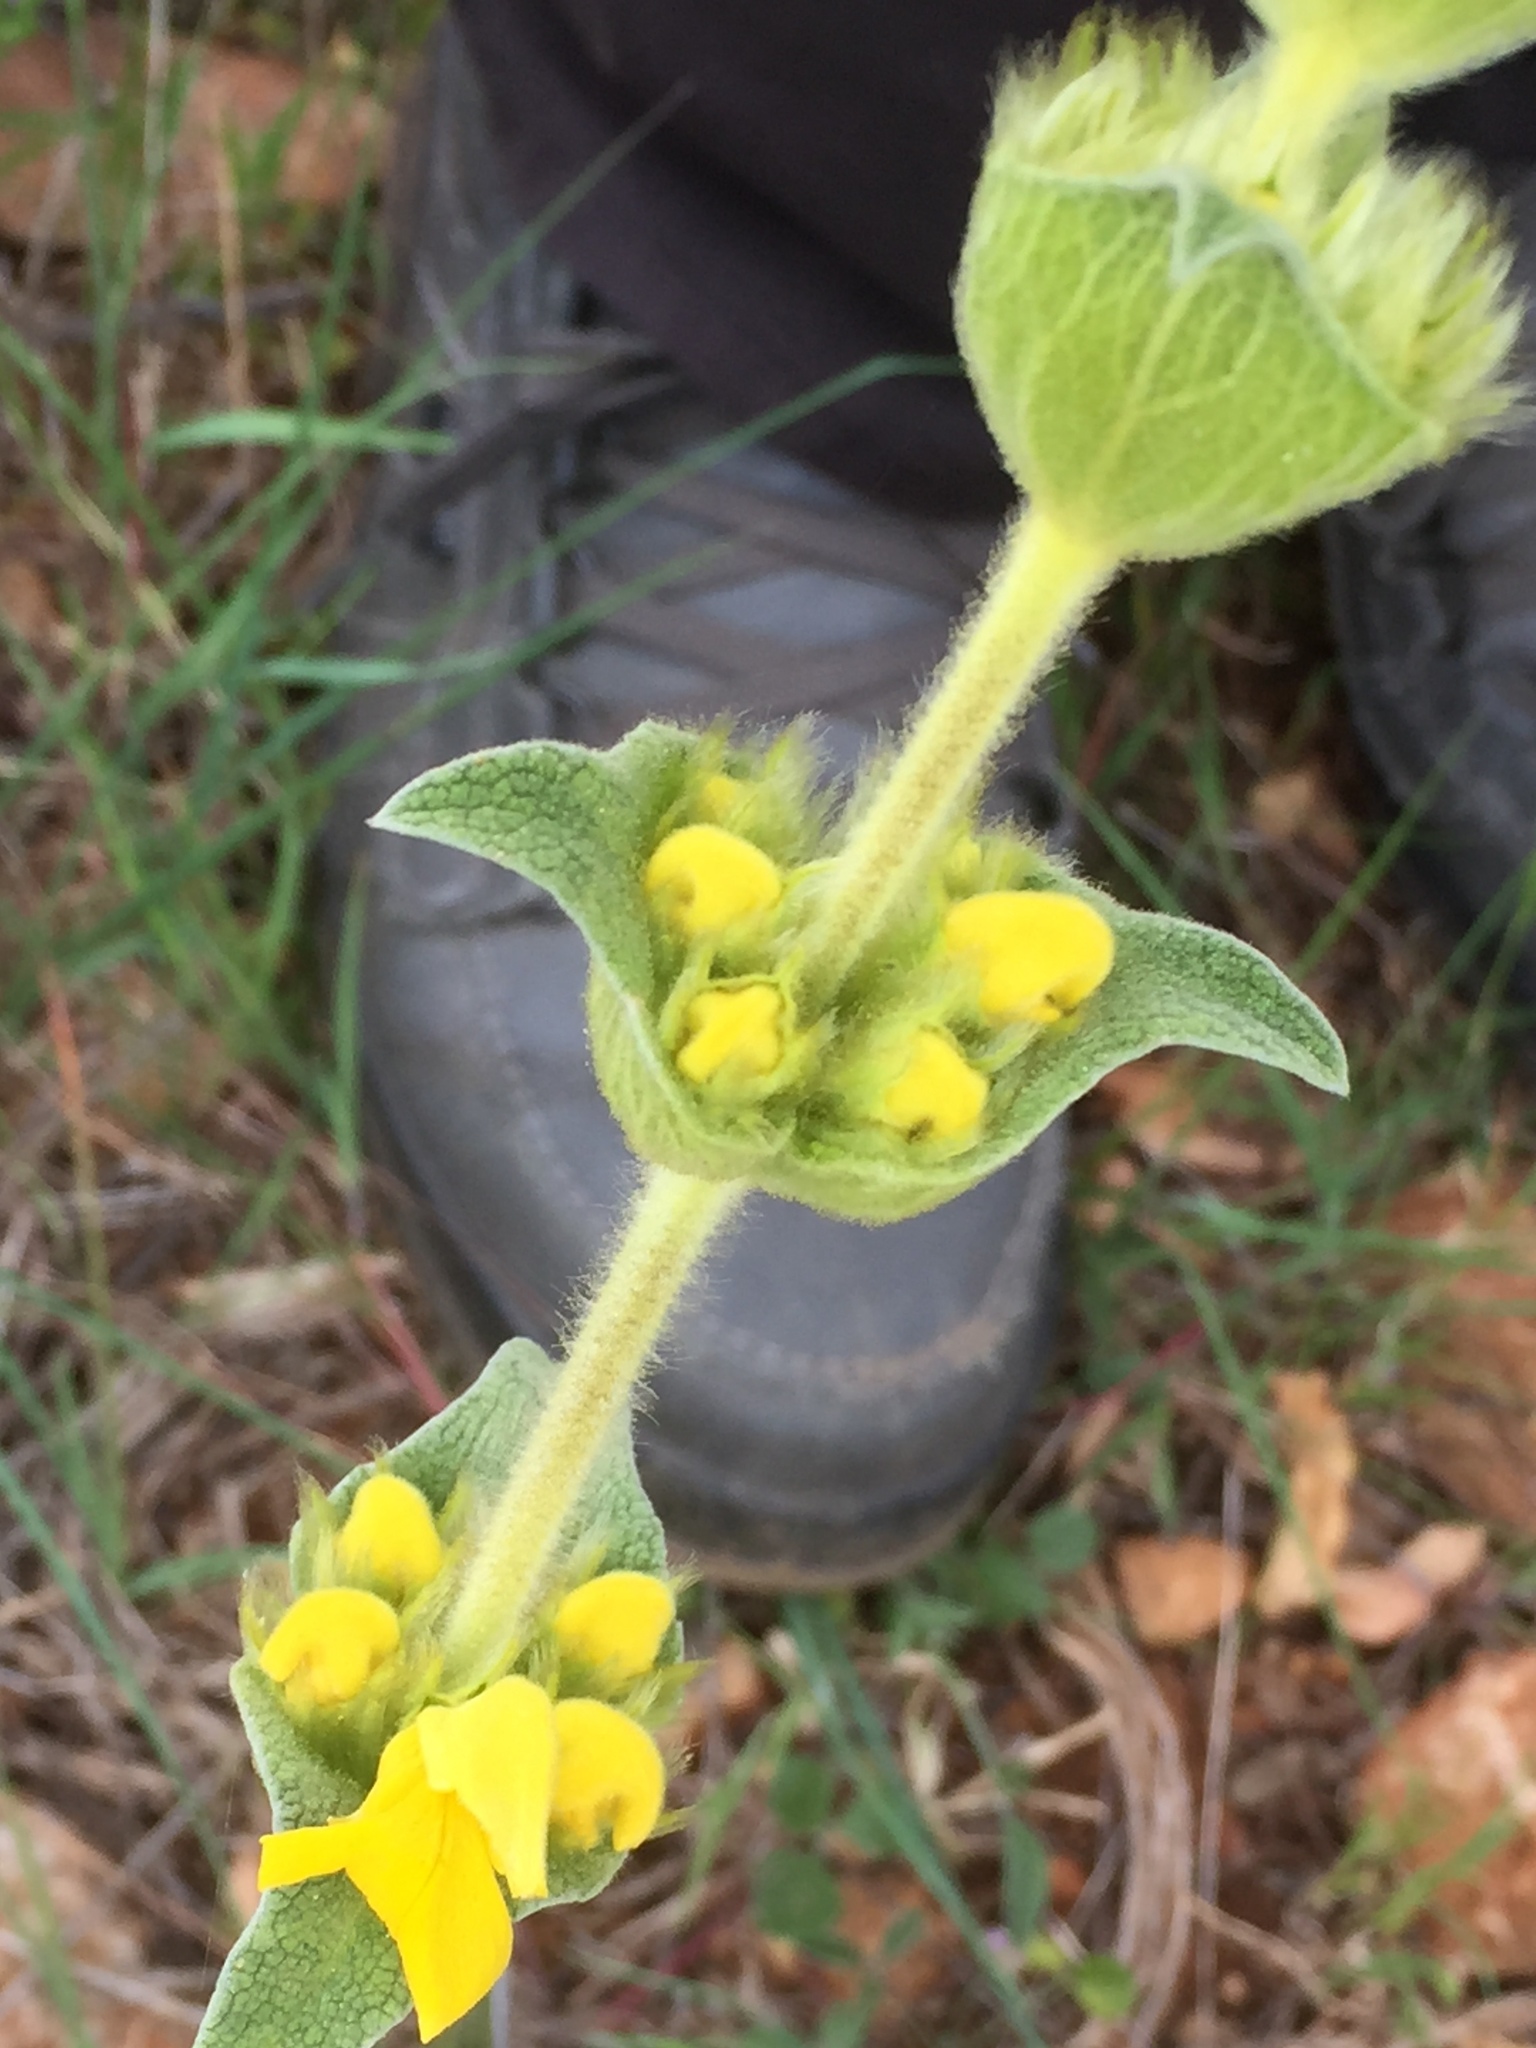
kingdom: Plantae
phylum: Tracheophyta
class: Magnoliopsida
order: Lamiales
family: Lamiaceae
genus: Phlomis
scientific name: Phlomis lychnitis
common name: Lampwickplant
